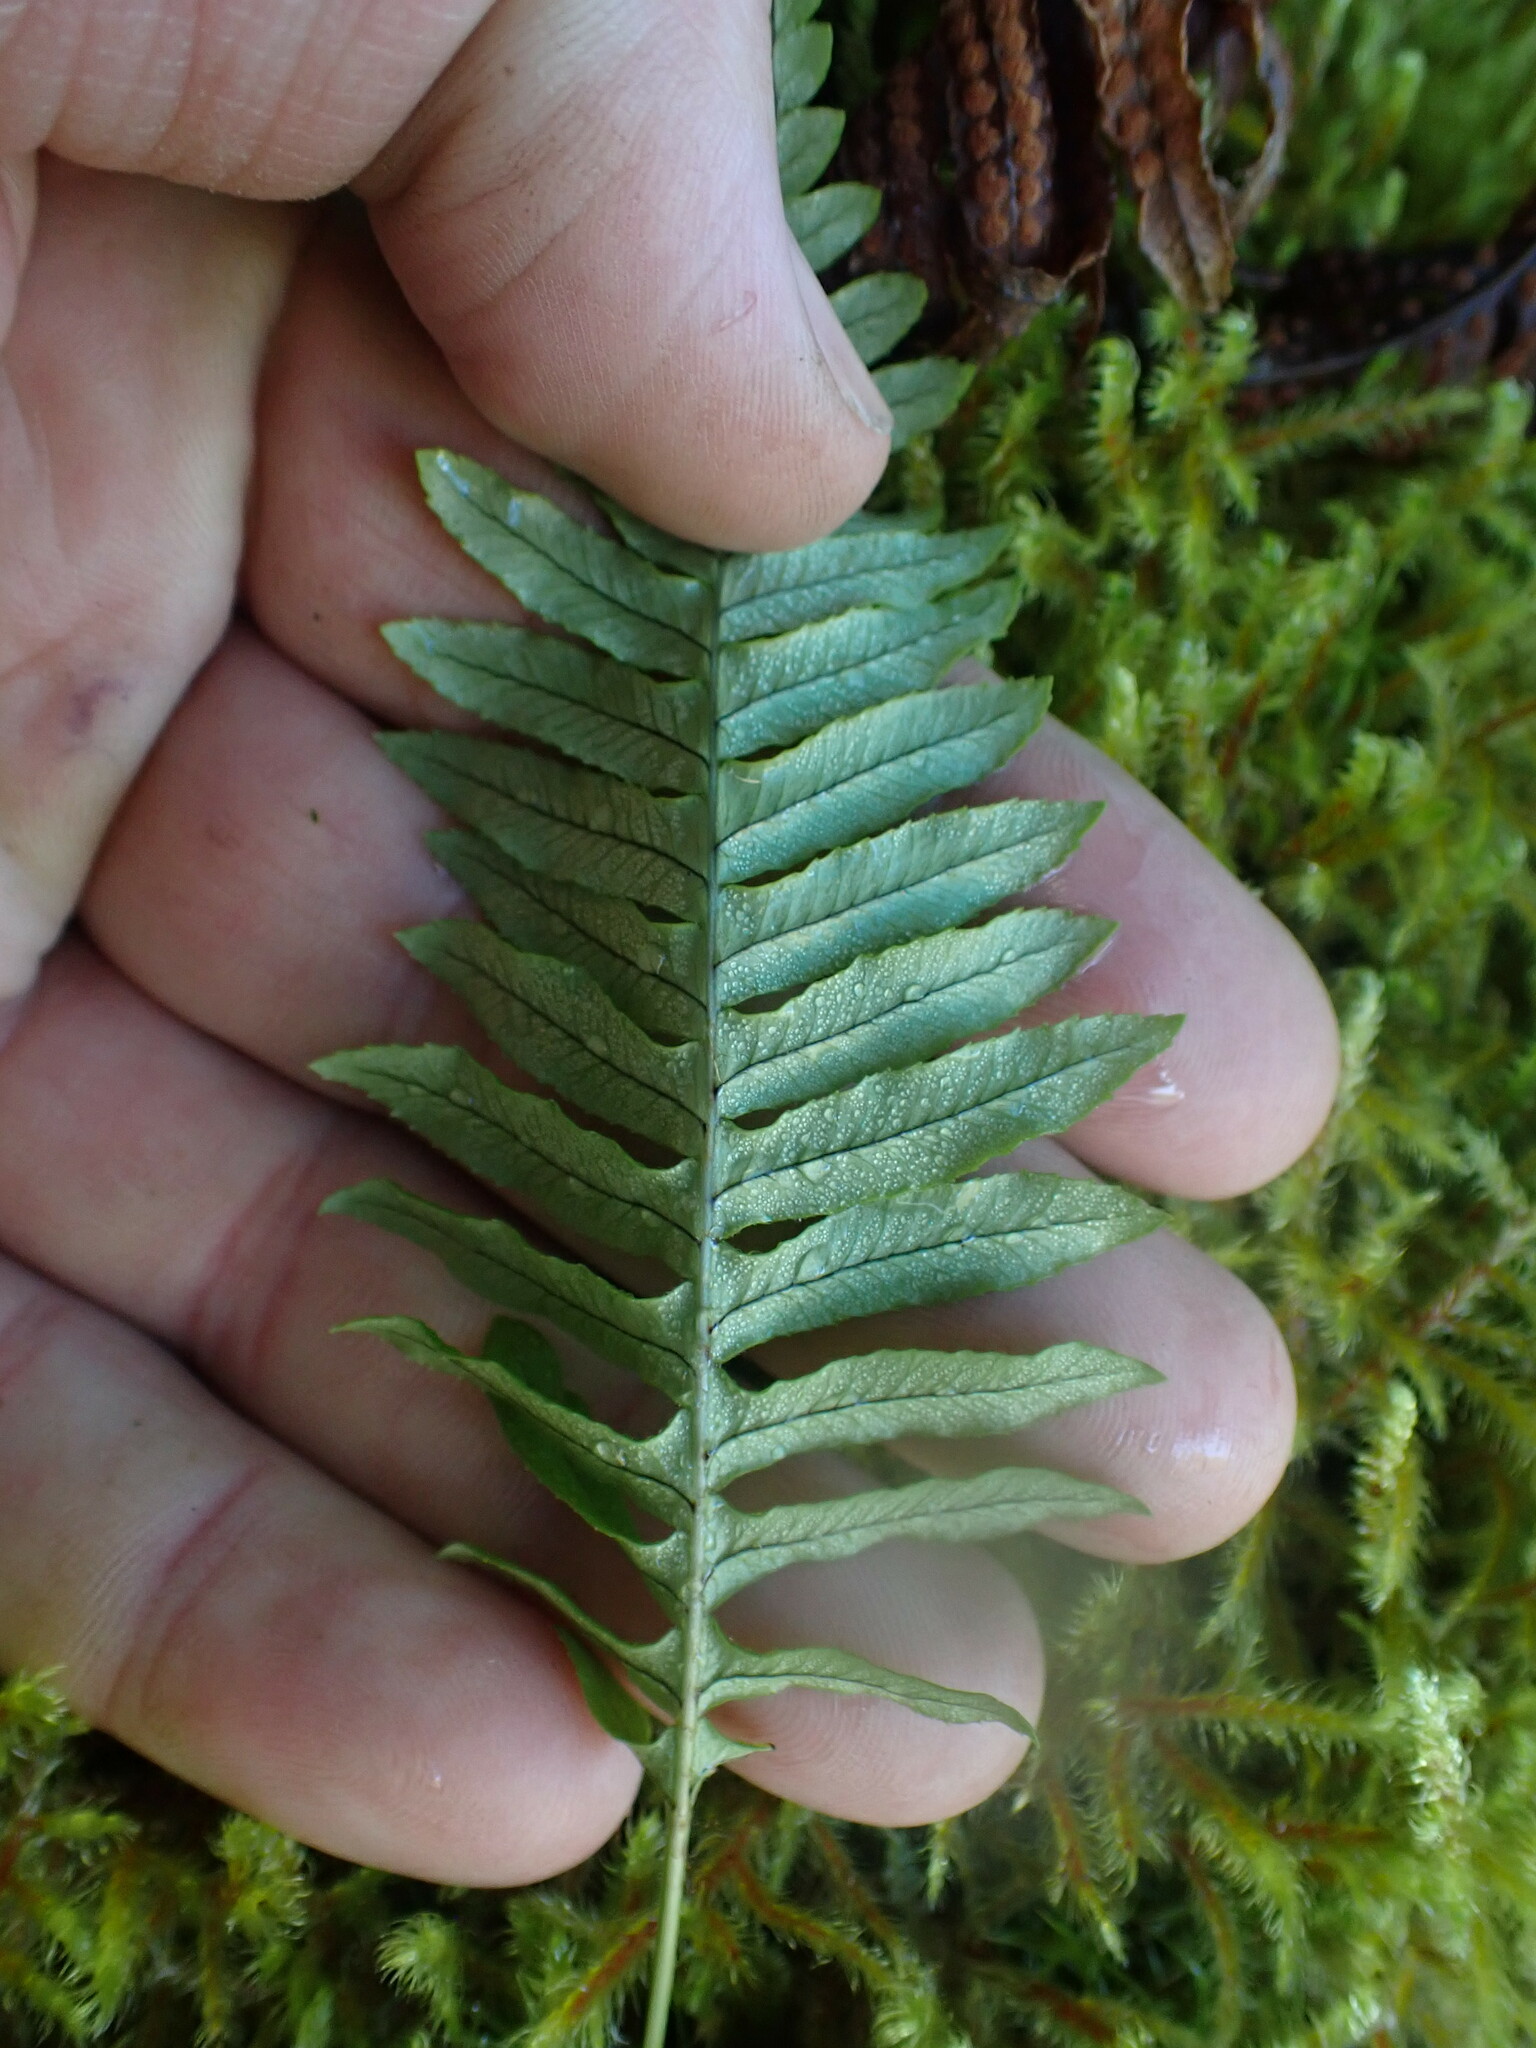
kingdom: Plantae
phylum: Tracheophyta
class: Polypodiopsida
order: Polypodiales
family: Polypodiaceae
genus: Polypodium
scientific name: Polypodium glycyrrhiza
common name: Licorice fern
